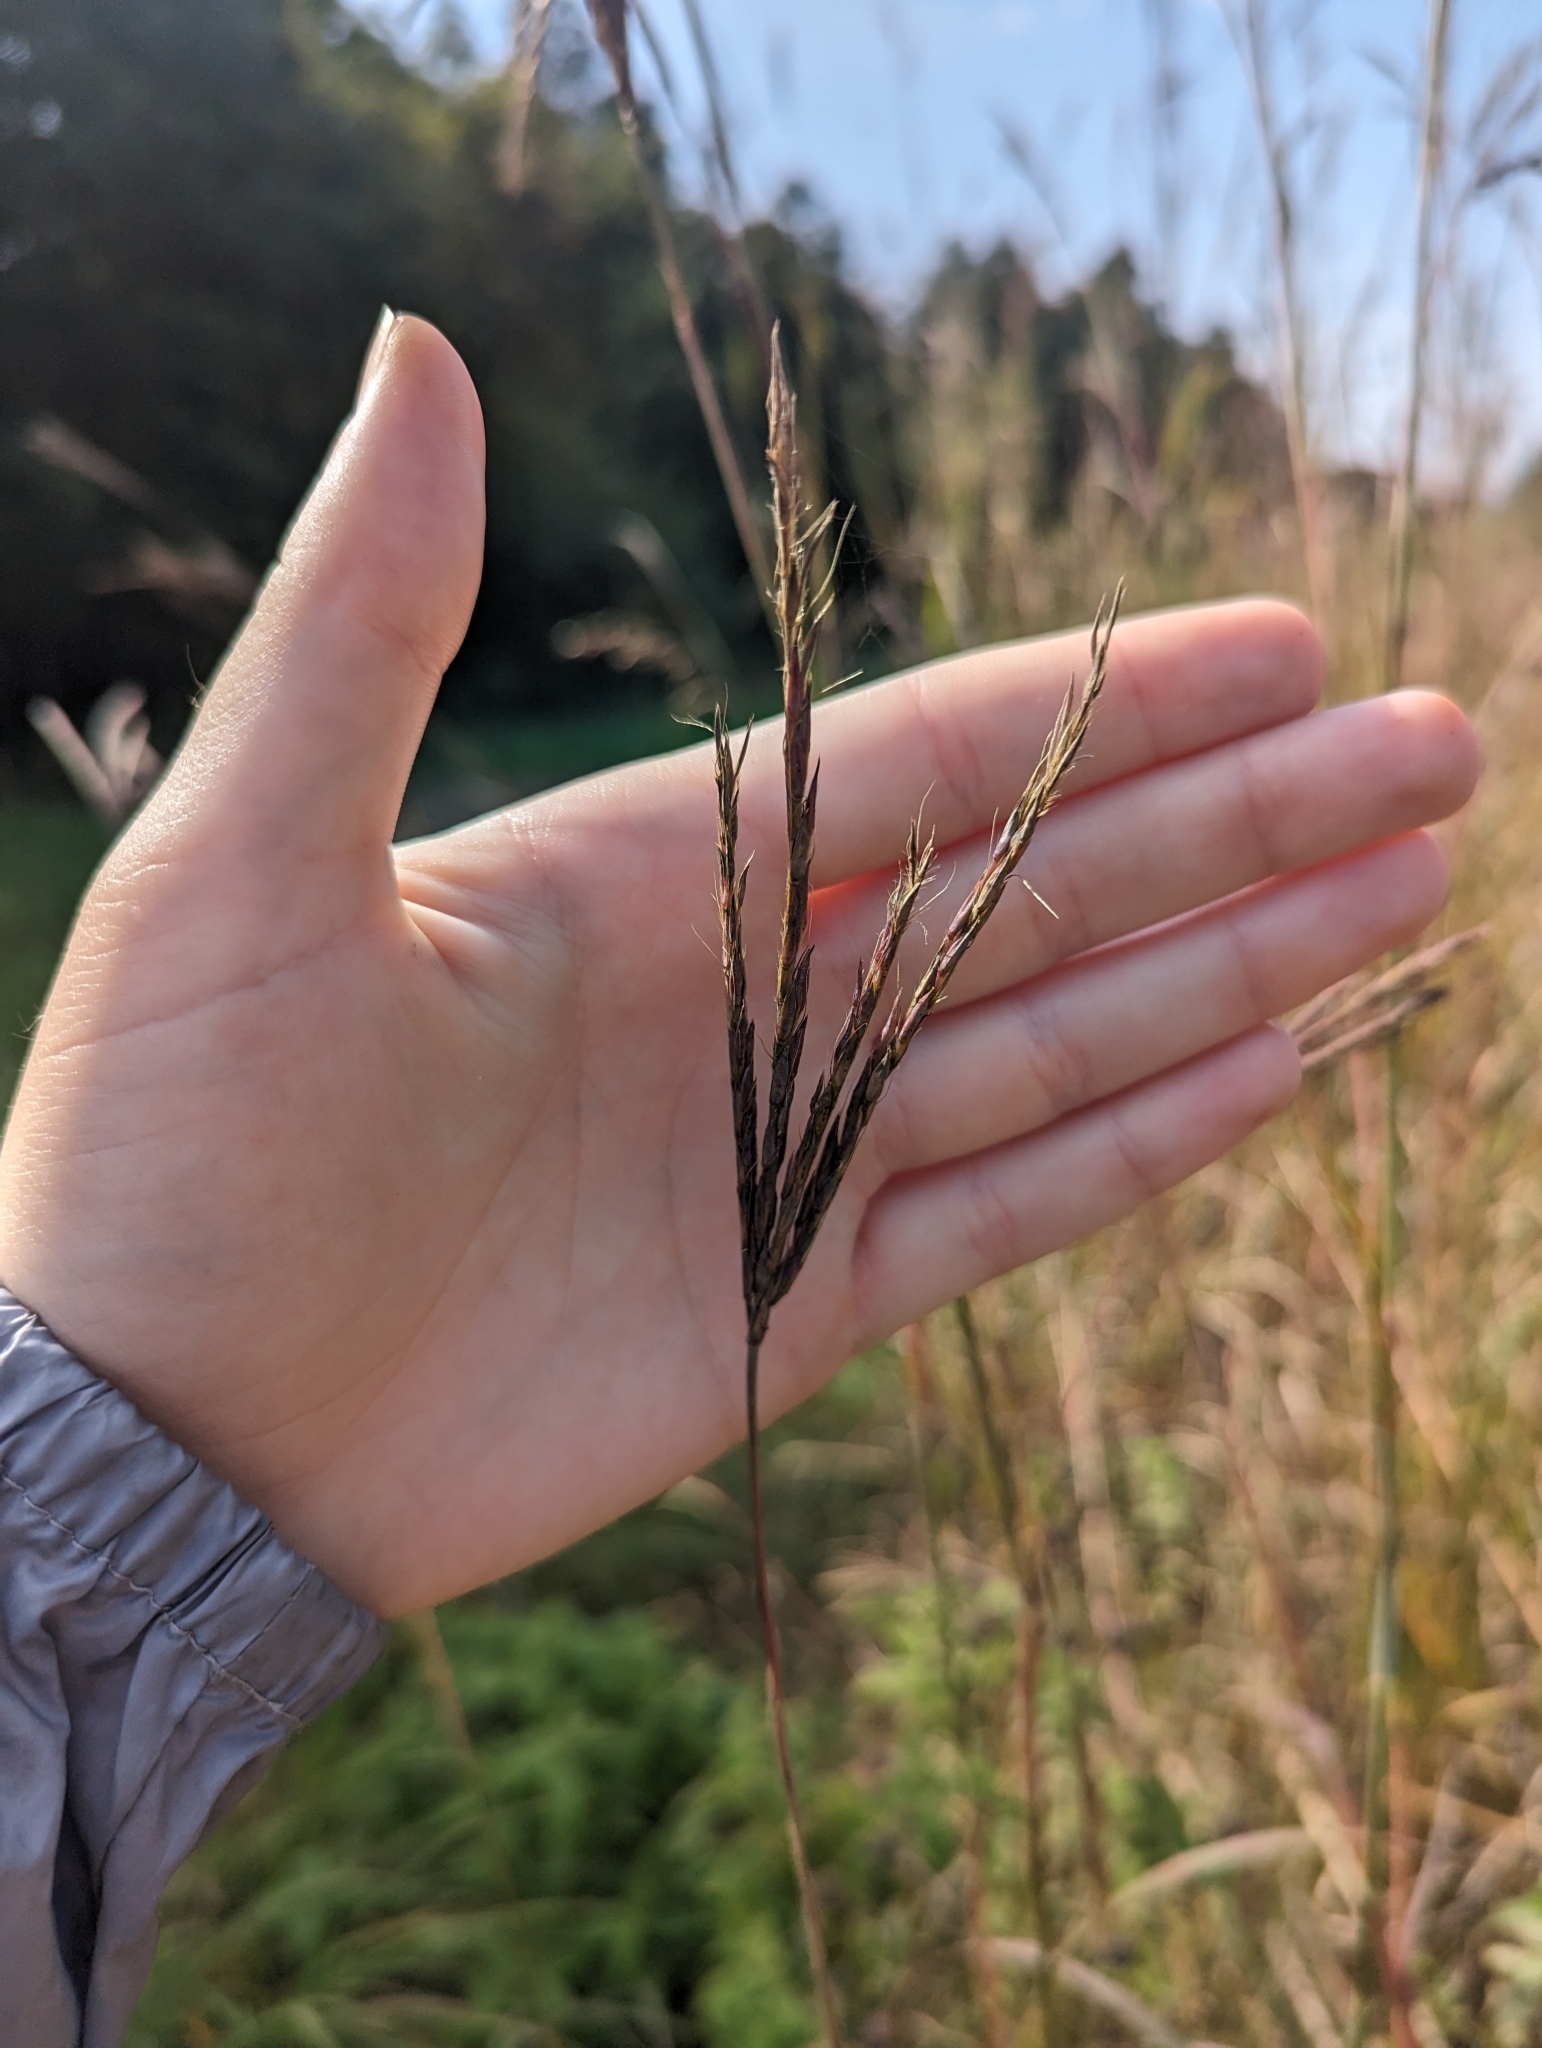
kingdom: Plantae
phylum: Tracheophyta
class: Liliopsida
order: Poales
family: Poaceae
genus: Andropogon
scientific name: Andropogon gerardi
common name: Big bluestem
